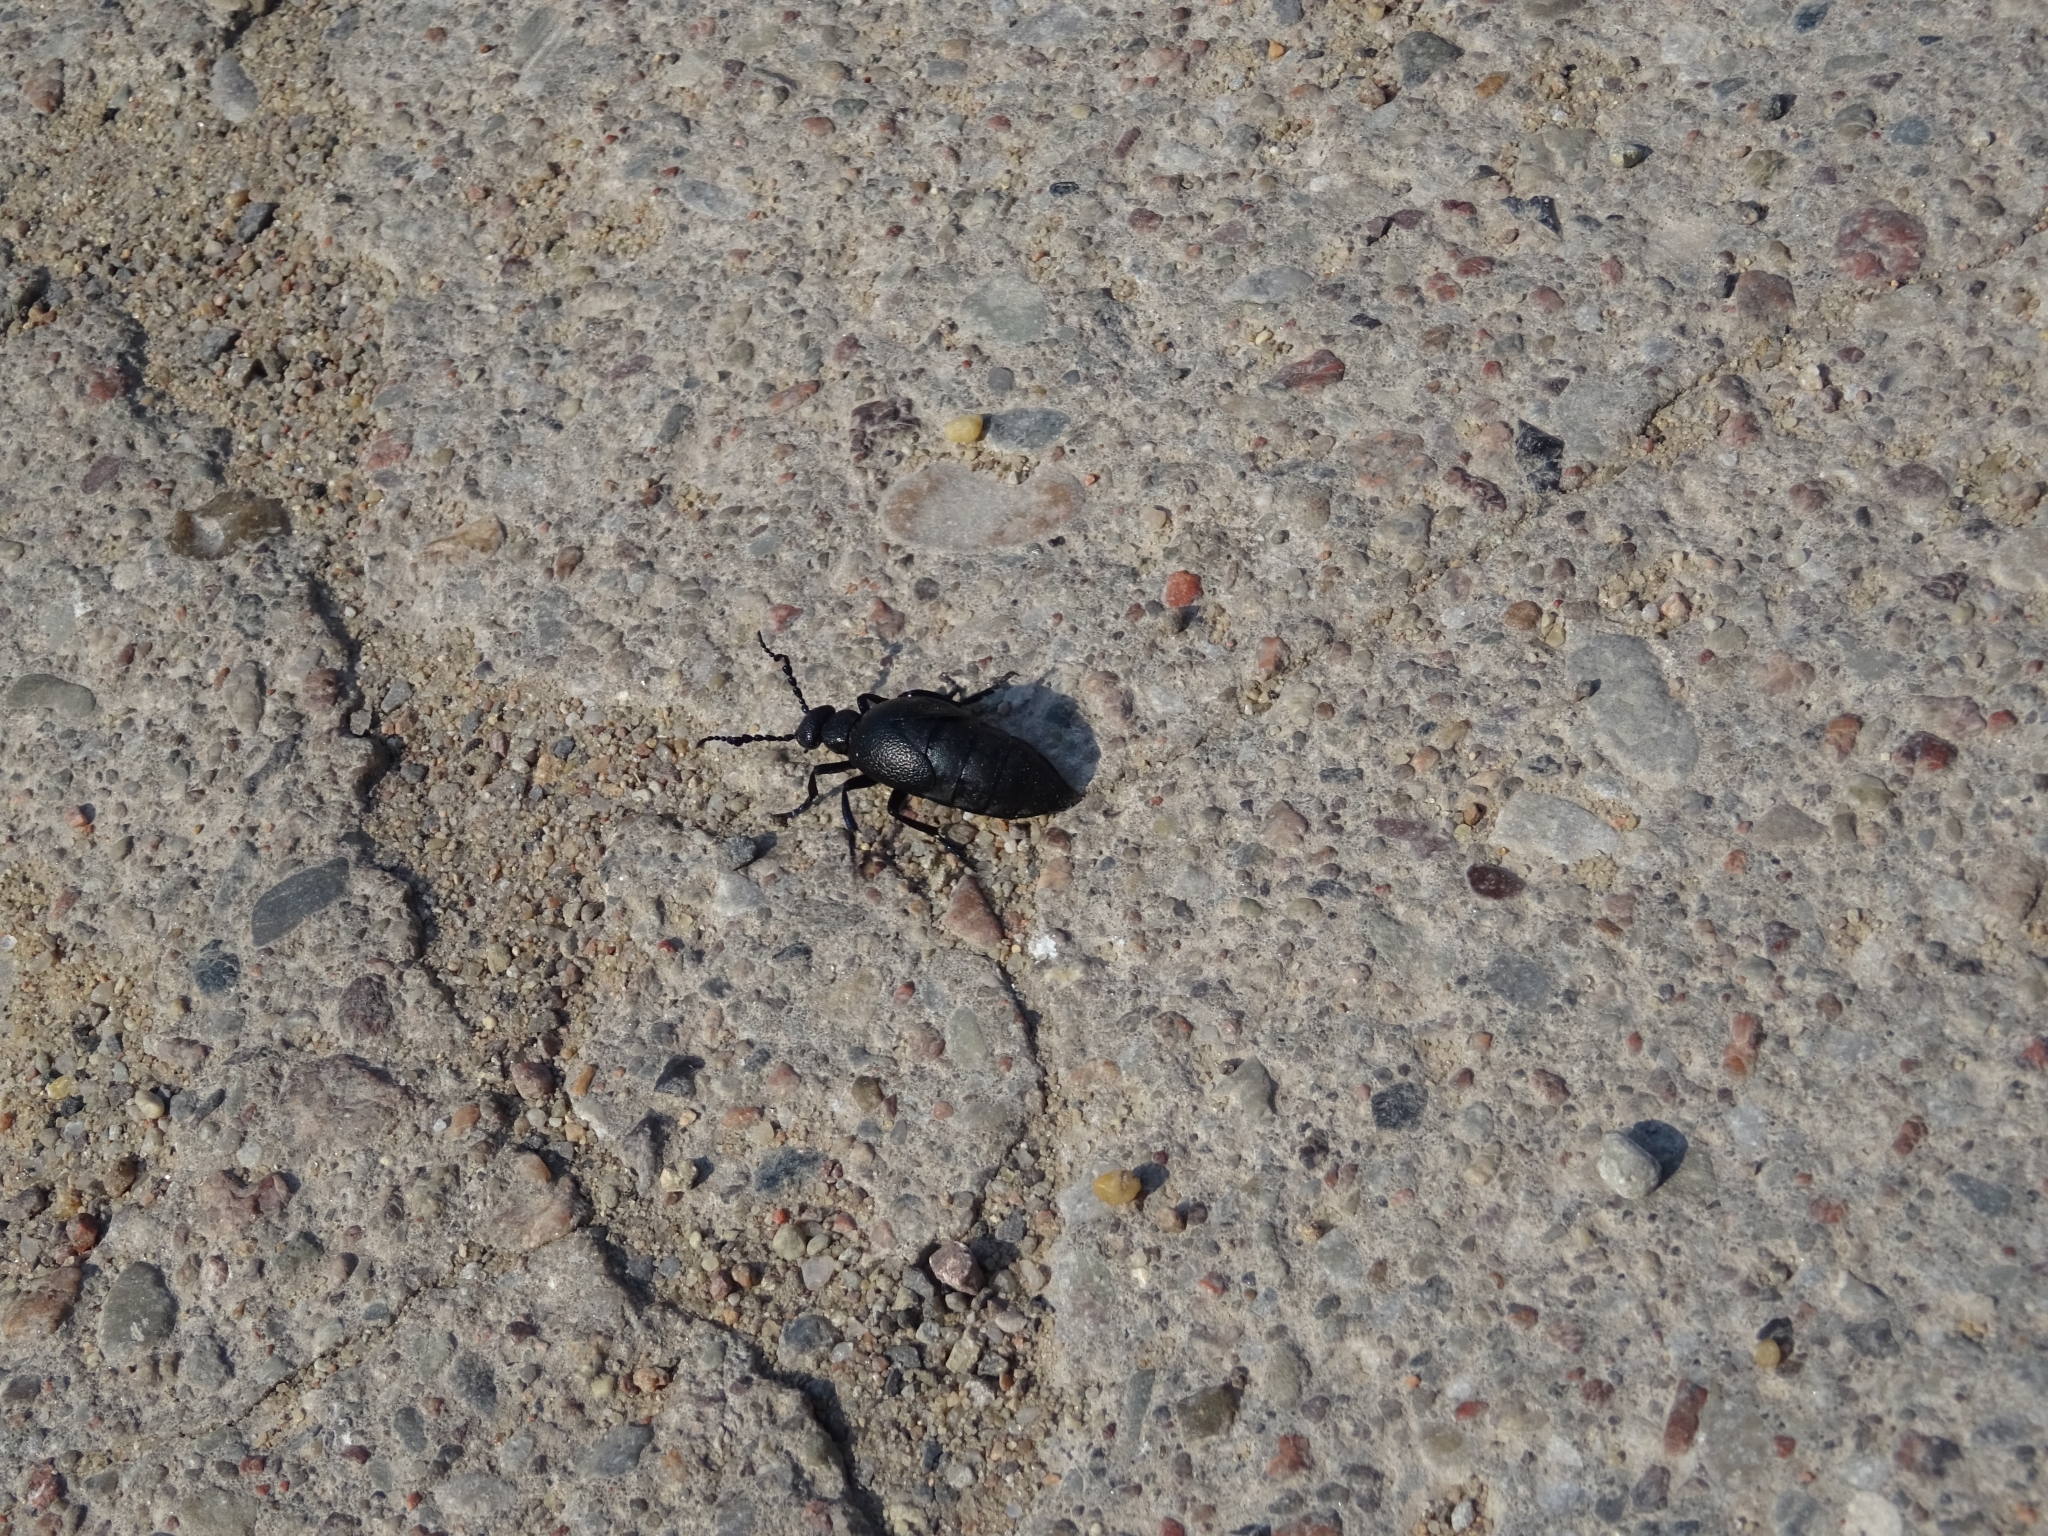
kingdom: Animalia
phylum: Arthropoda
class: Insecta
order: Coleoptera
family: Meloidae
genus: Meloe
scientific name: Meloe proscarabaeus
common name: Black oil-beetle
